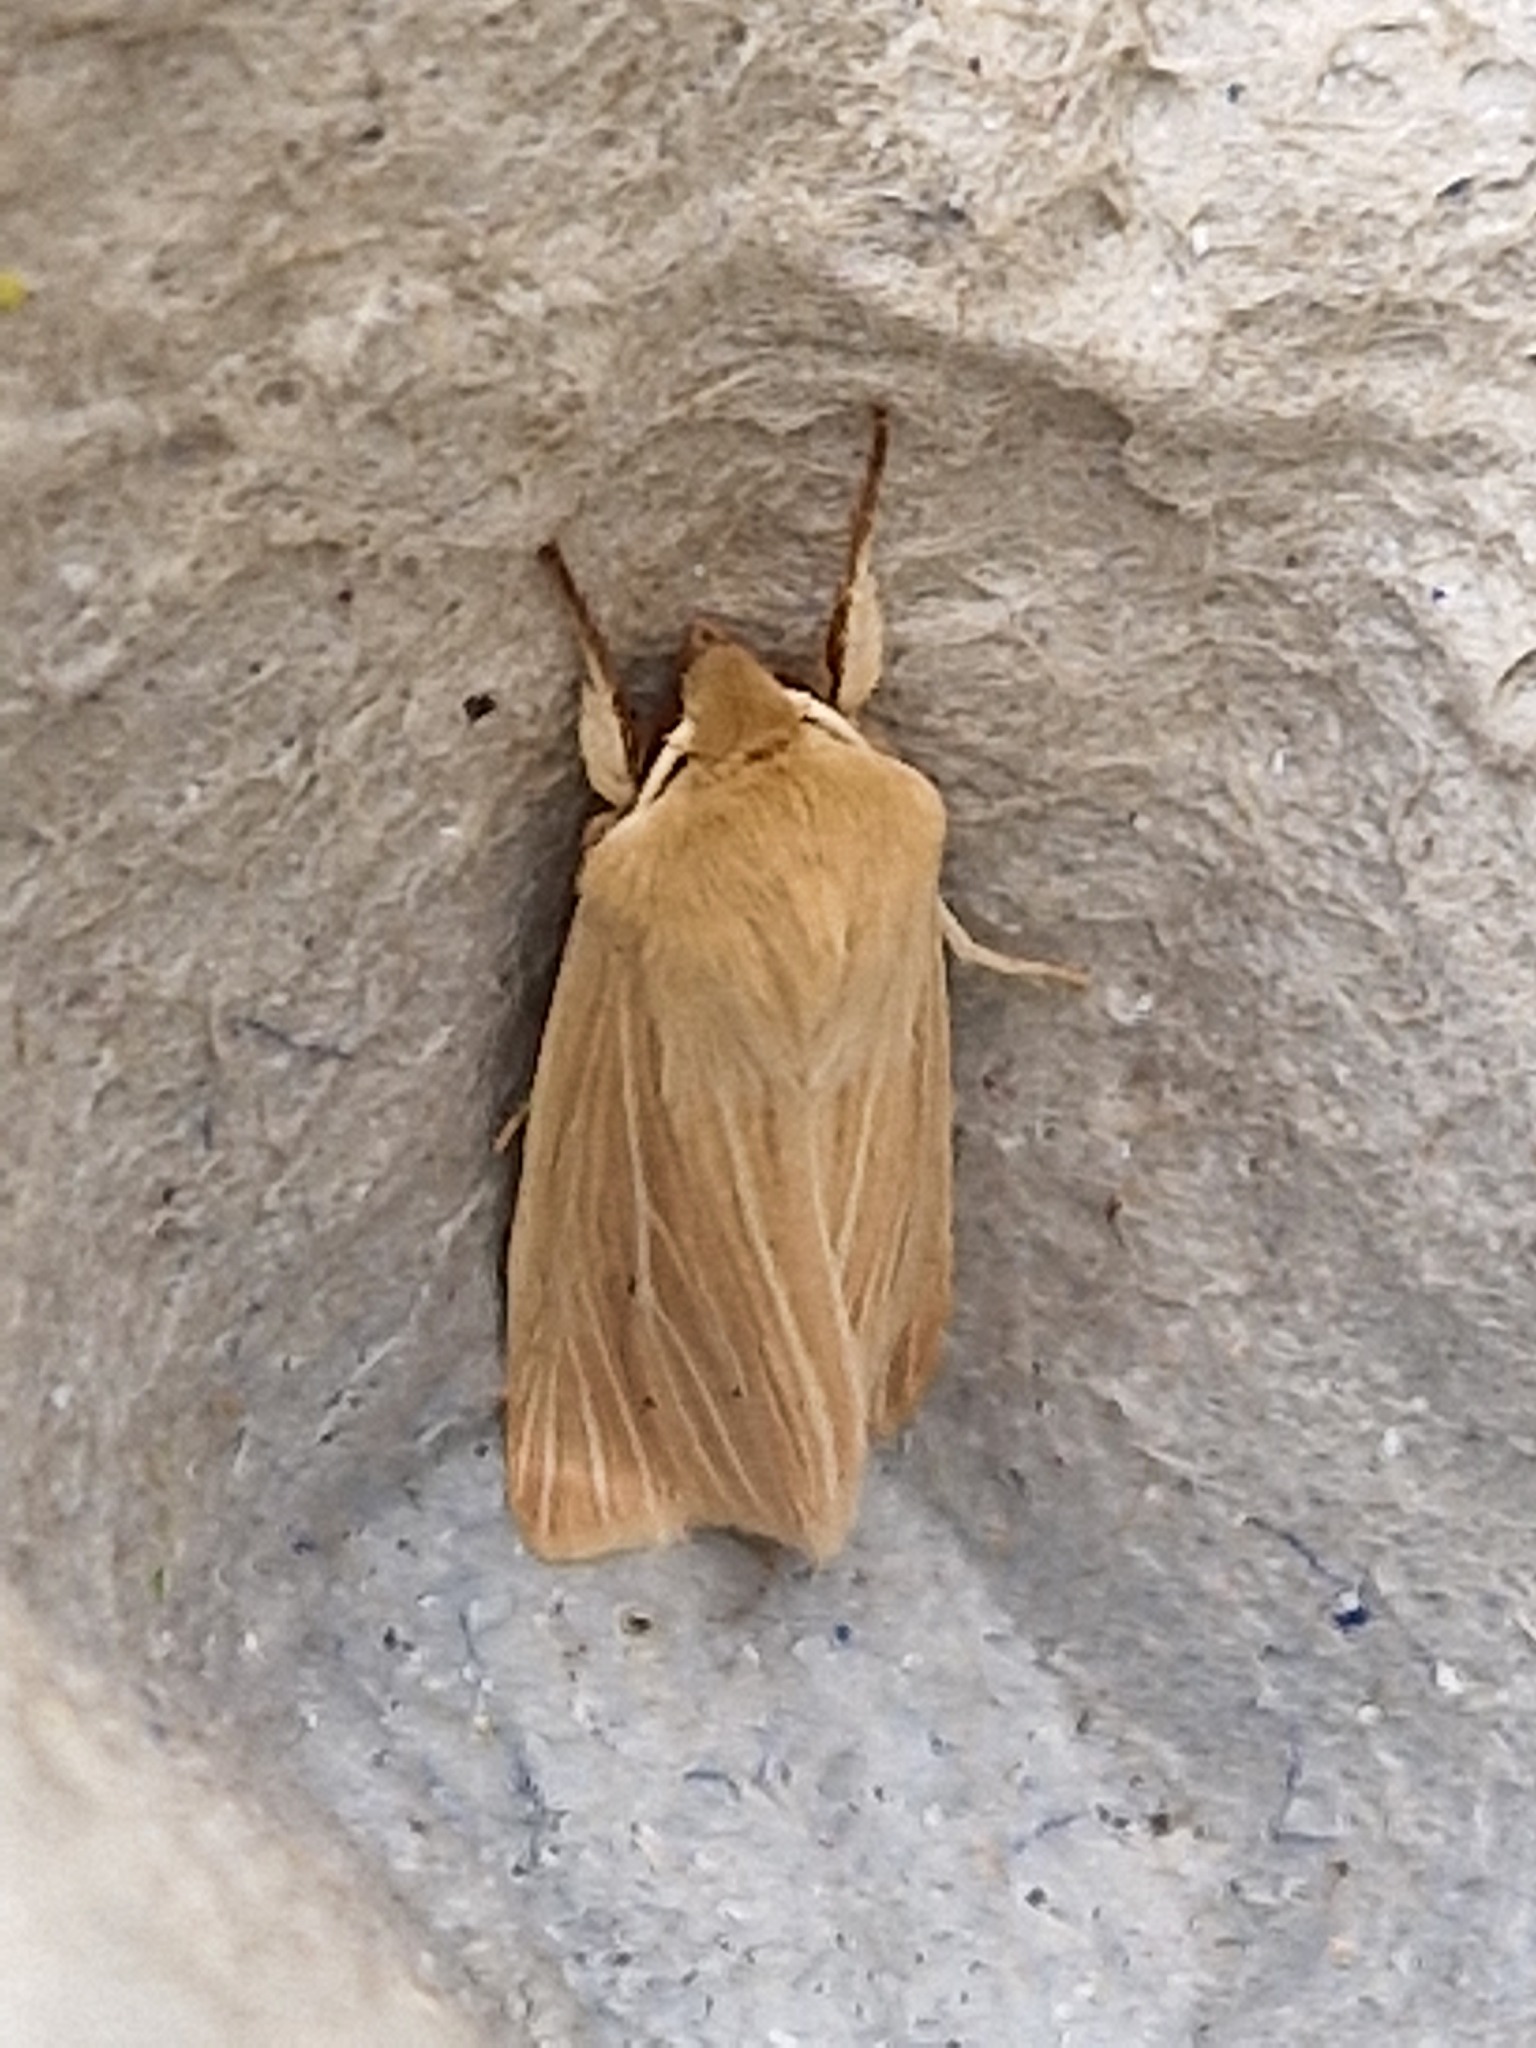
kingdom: Animalia
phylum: Arthropoda
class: Insecta
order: Lepidoptera
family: Noctuidae
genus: Mythimna
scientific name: Mythimna pallens
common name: Common wainscot
